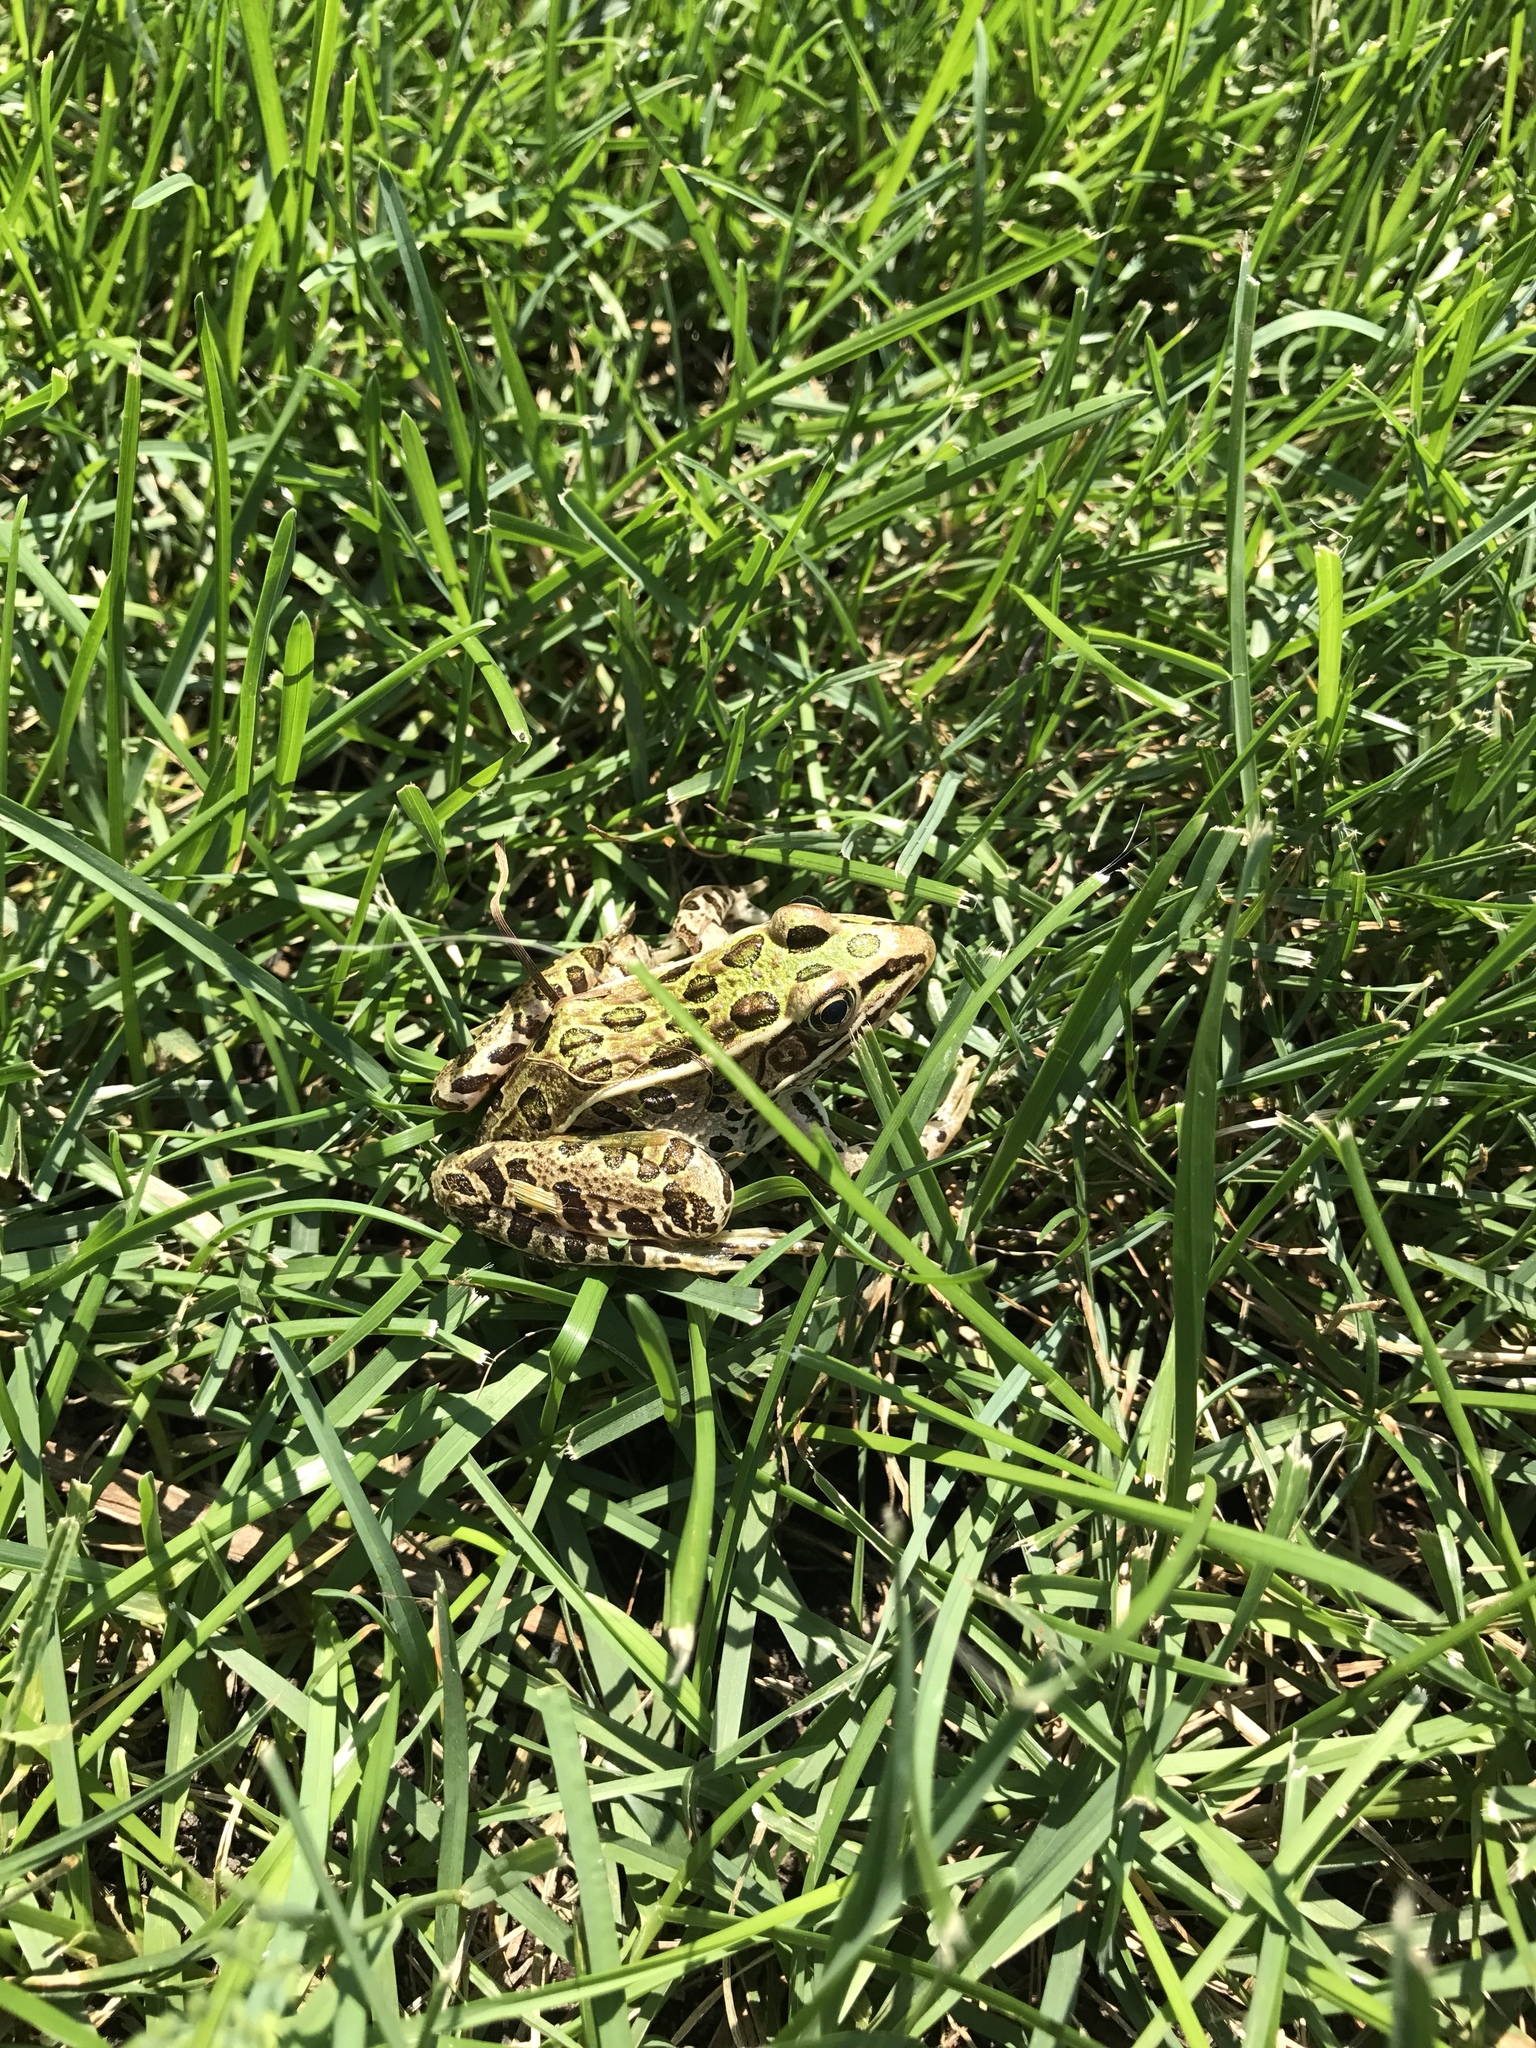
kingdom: Animalia
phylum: Chordata
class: Amphibia
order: Anura
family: Ranidae
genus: Lithobates
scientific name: Lithobates pipiens
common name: Northern leopard frog
